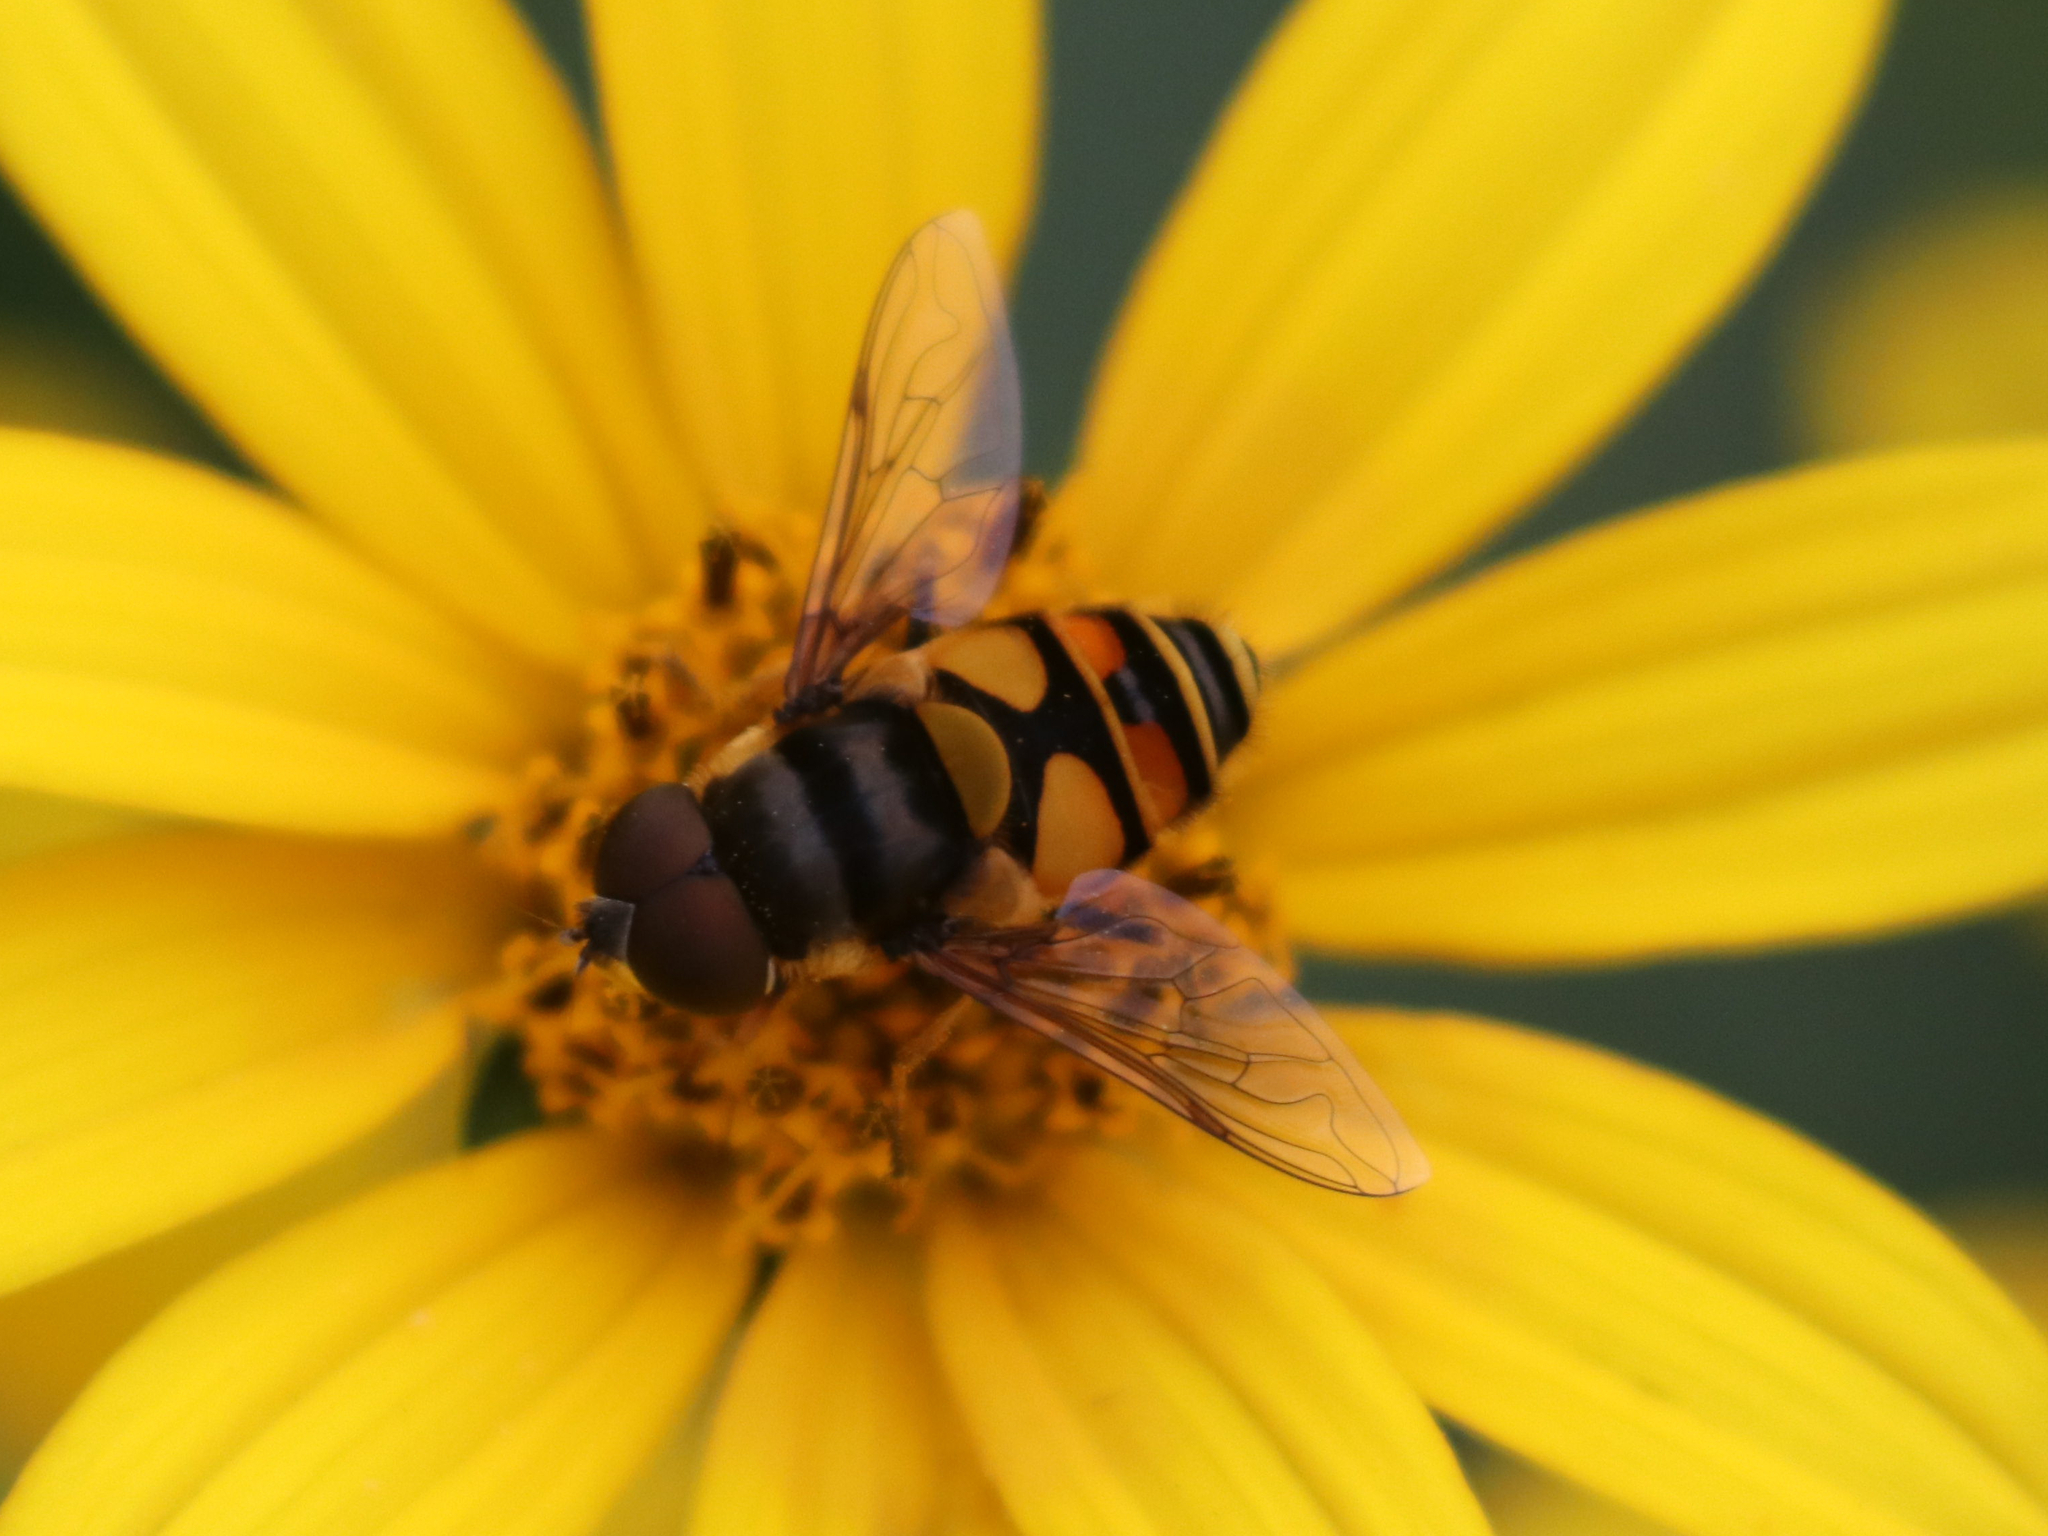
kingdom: Animalia
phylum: Arthropoda
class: Insecta
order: Diptera
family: Syrphidae
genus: Eristalis
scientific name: Eristalis transversa
